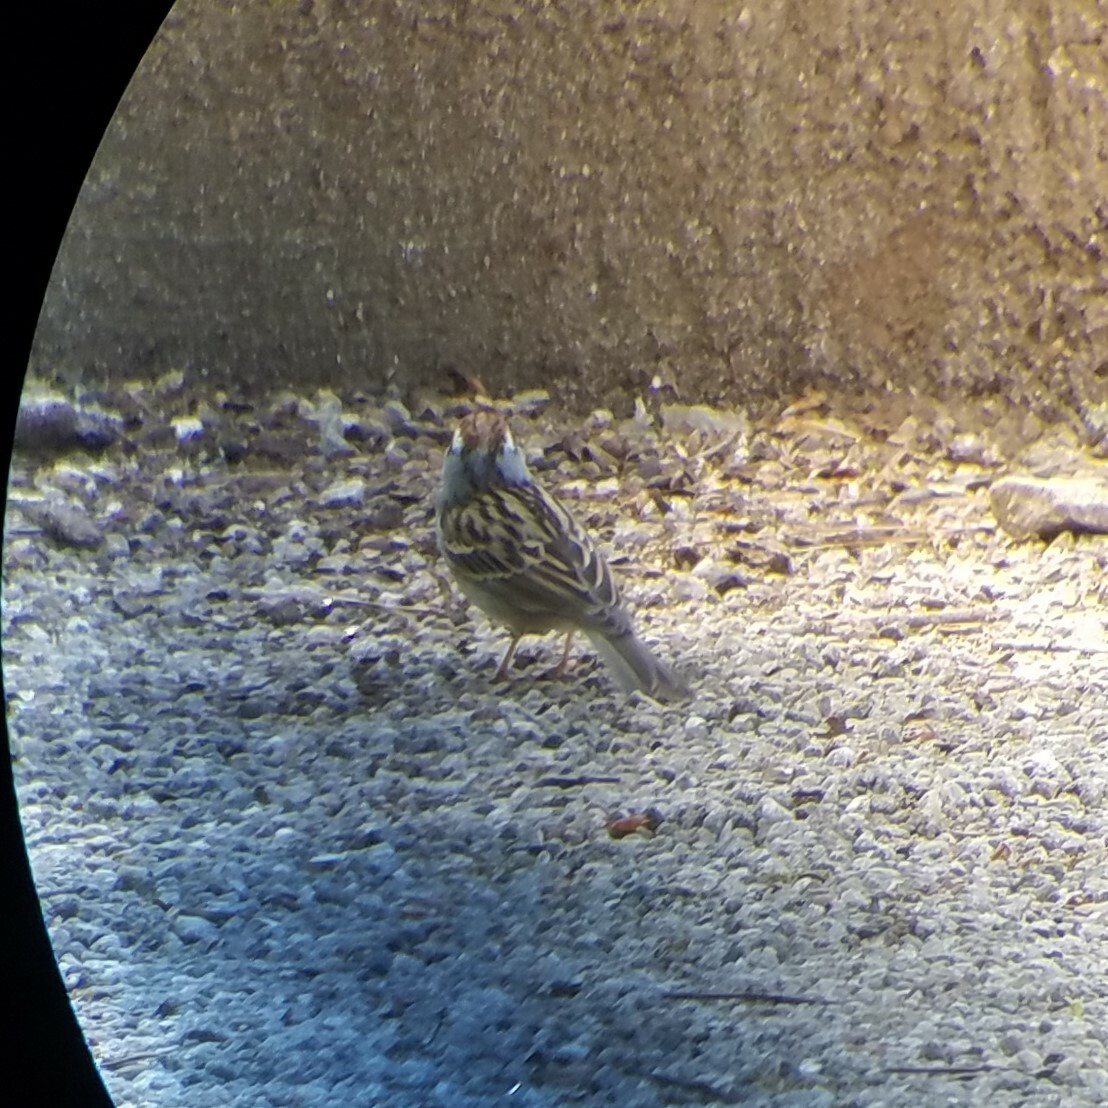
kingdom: Animalia
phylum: Chordata
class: Aves
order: Passeriformes
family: Passerellidae
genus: Spizella
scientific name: Spizella passerina
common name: Chipping sparrow
